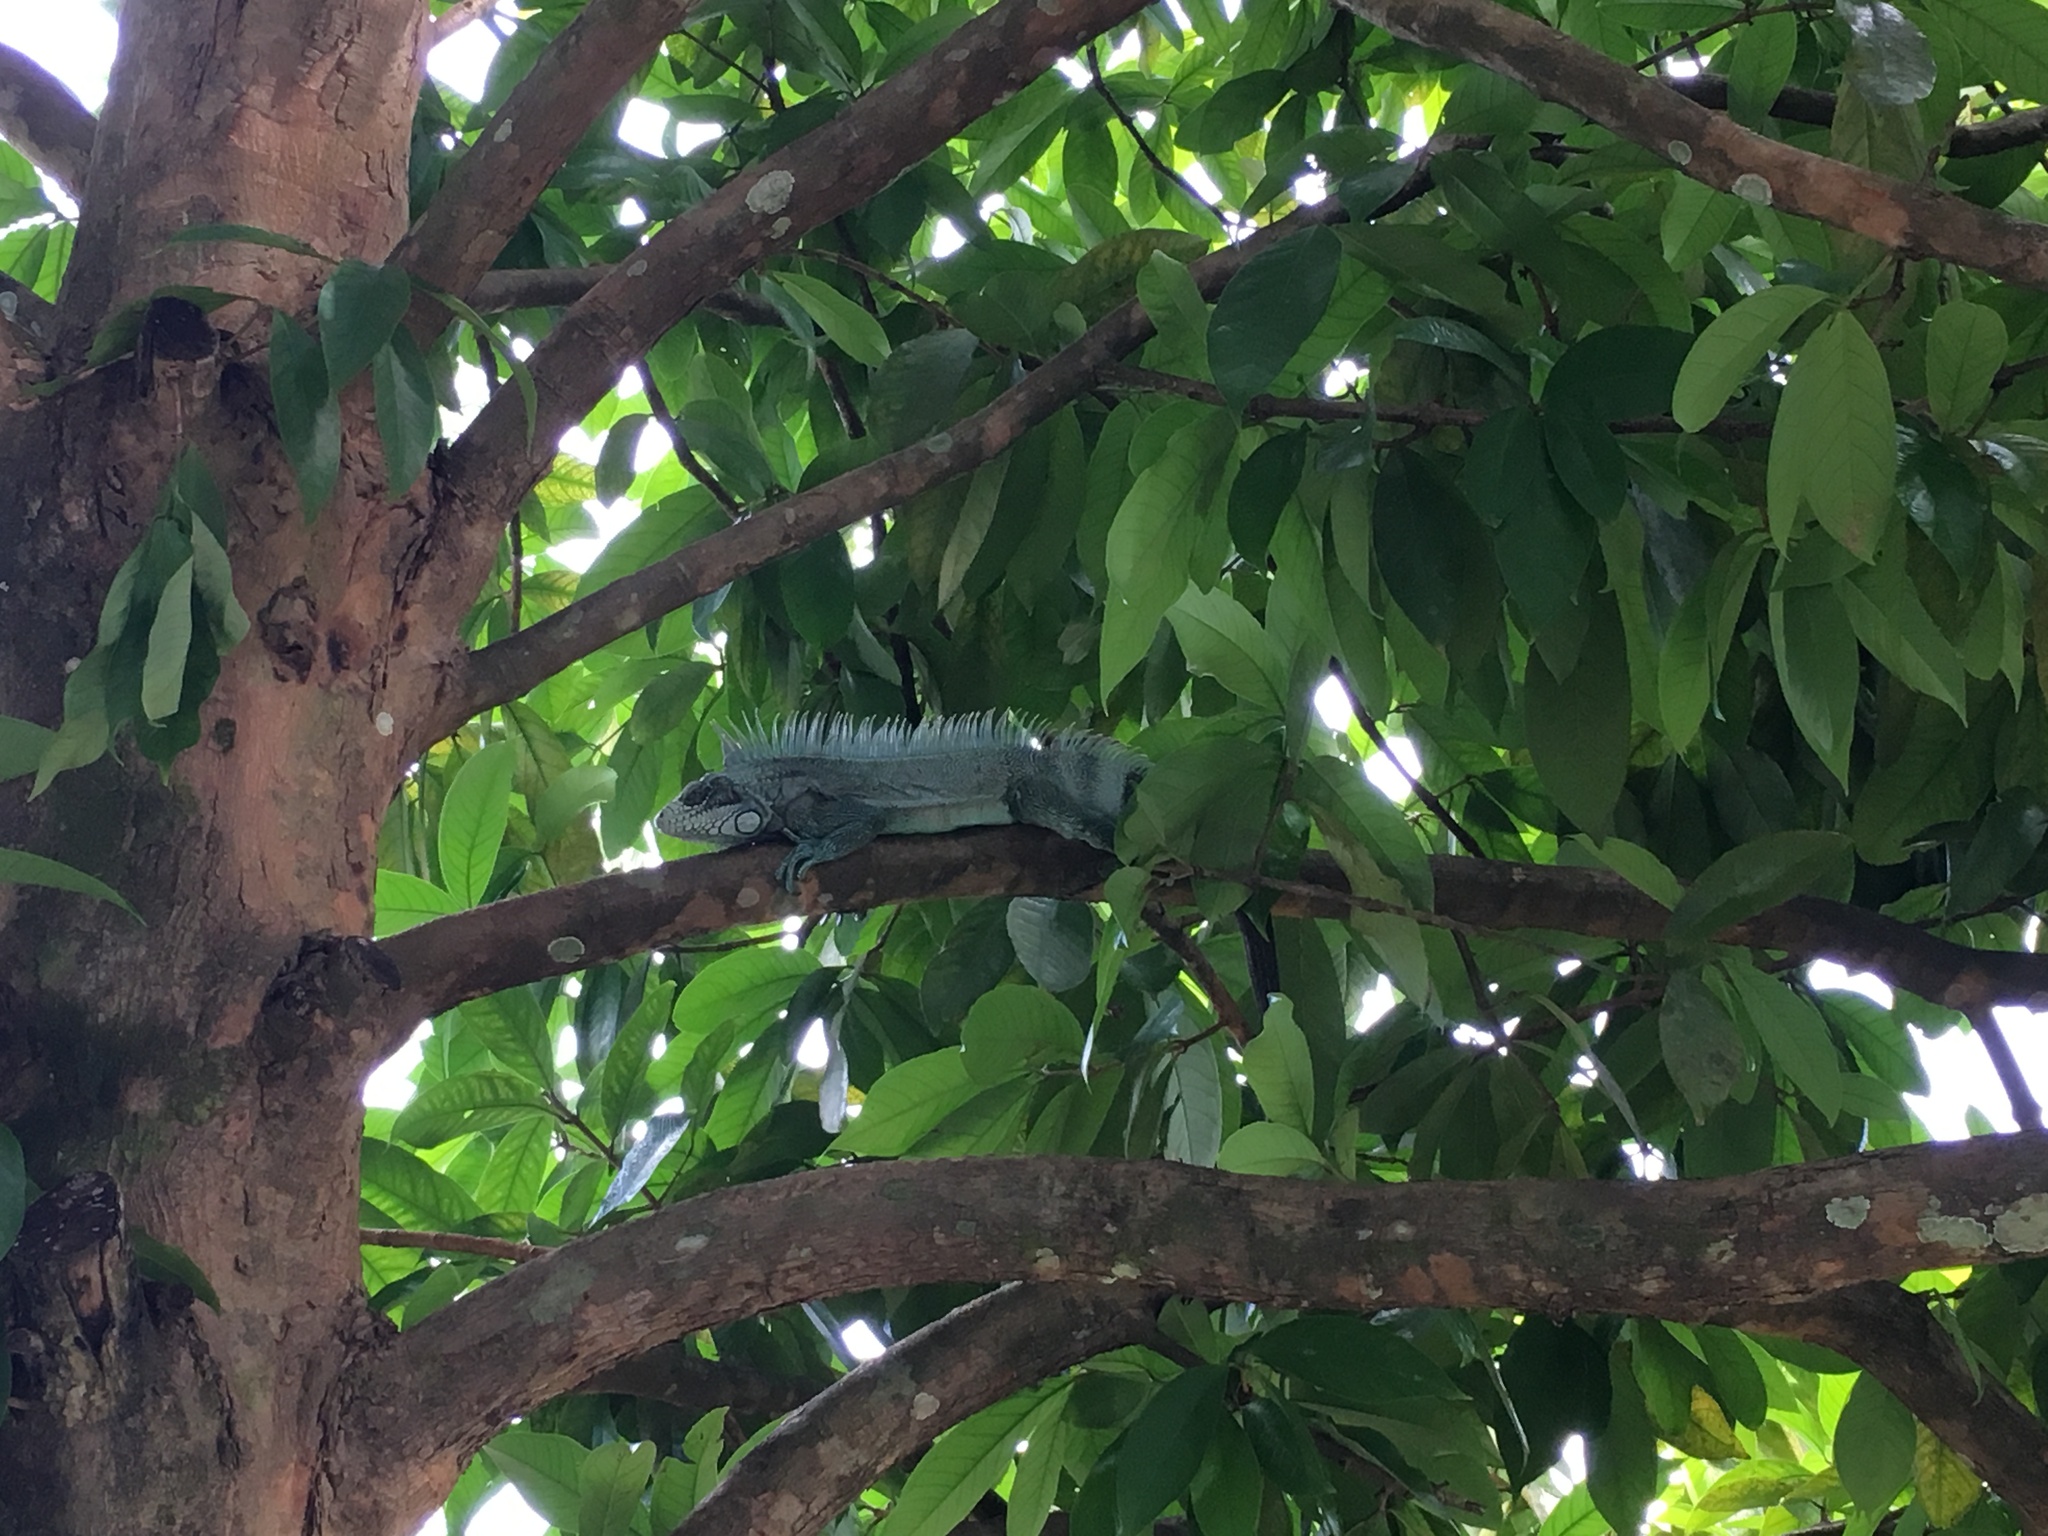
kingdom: Animalia
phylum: Chordata
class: Squamata
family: Iguanidae
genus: Iguana
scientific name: Iguana iguana
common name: Green iguana
